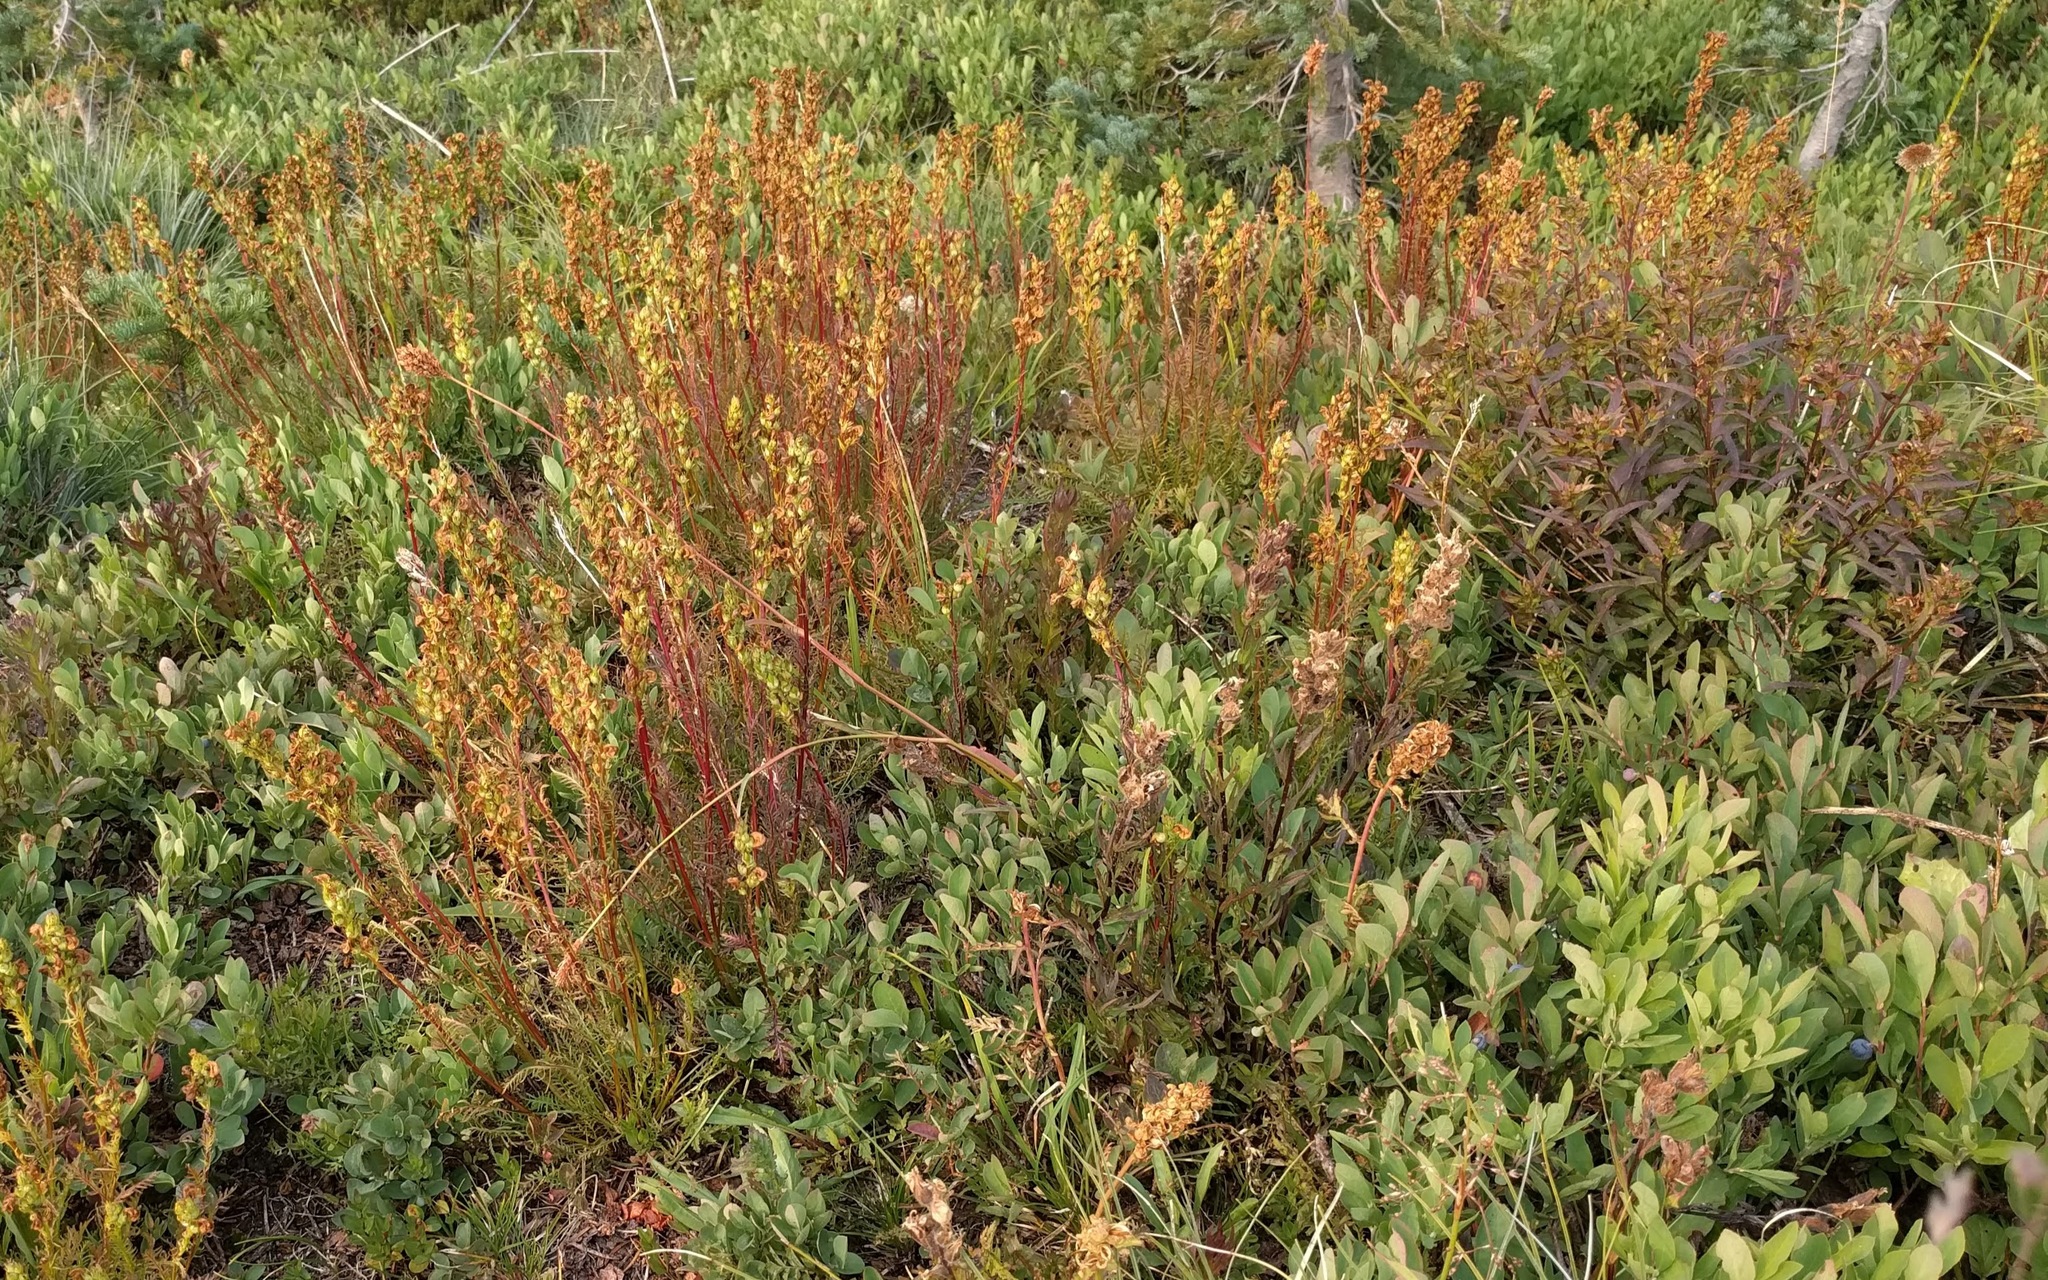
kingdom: Plantae
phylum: Tracheophyta
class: Magnoliopsida
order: Lamiales
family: Orobanchaceae
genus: Pedicularis
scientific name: Pedicularis contorta
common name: Coiled lousewort
